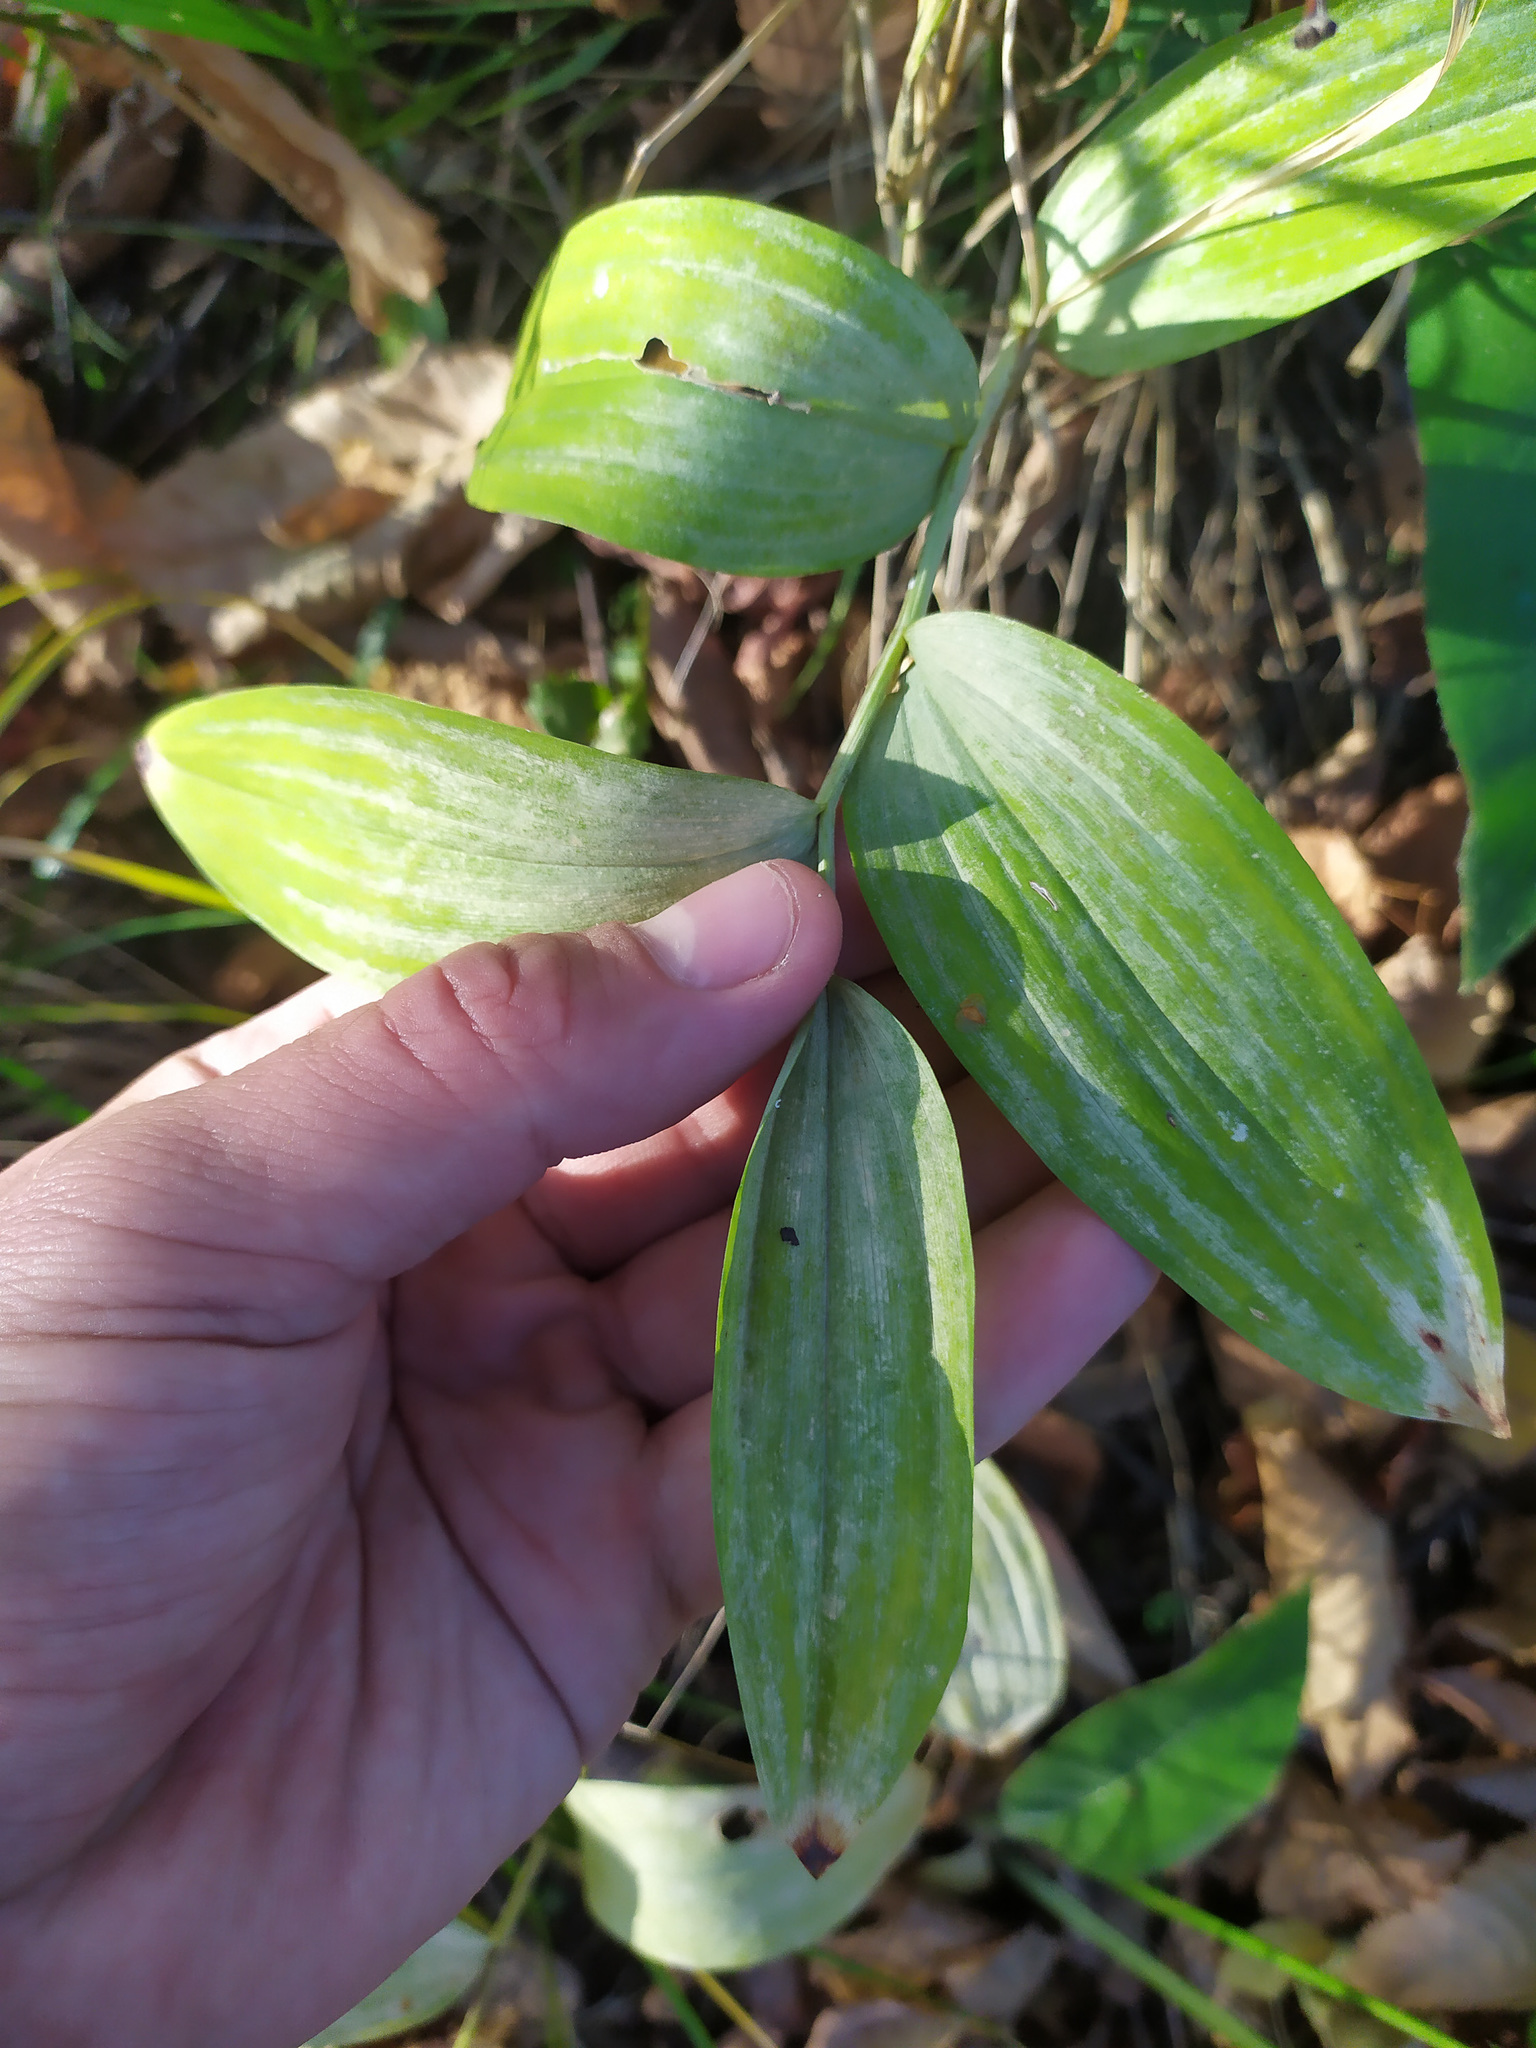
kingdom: Plantae
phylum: Tracheophyta
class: Liliopsida
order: Asparagales
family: Asparagaceae
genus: Polygonatum
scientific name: Polygonatum odoratum
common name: Angular solomon's-seal
